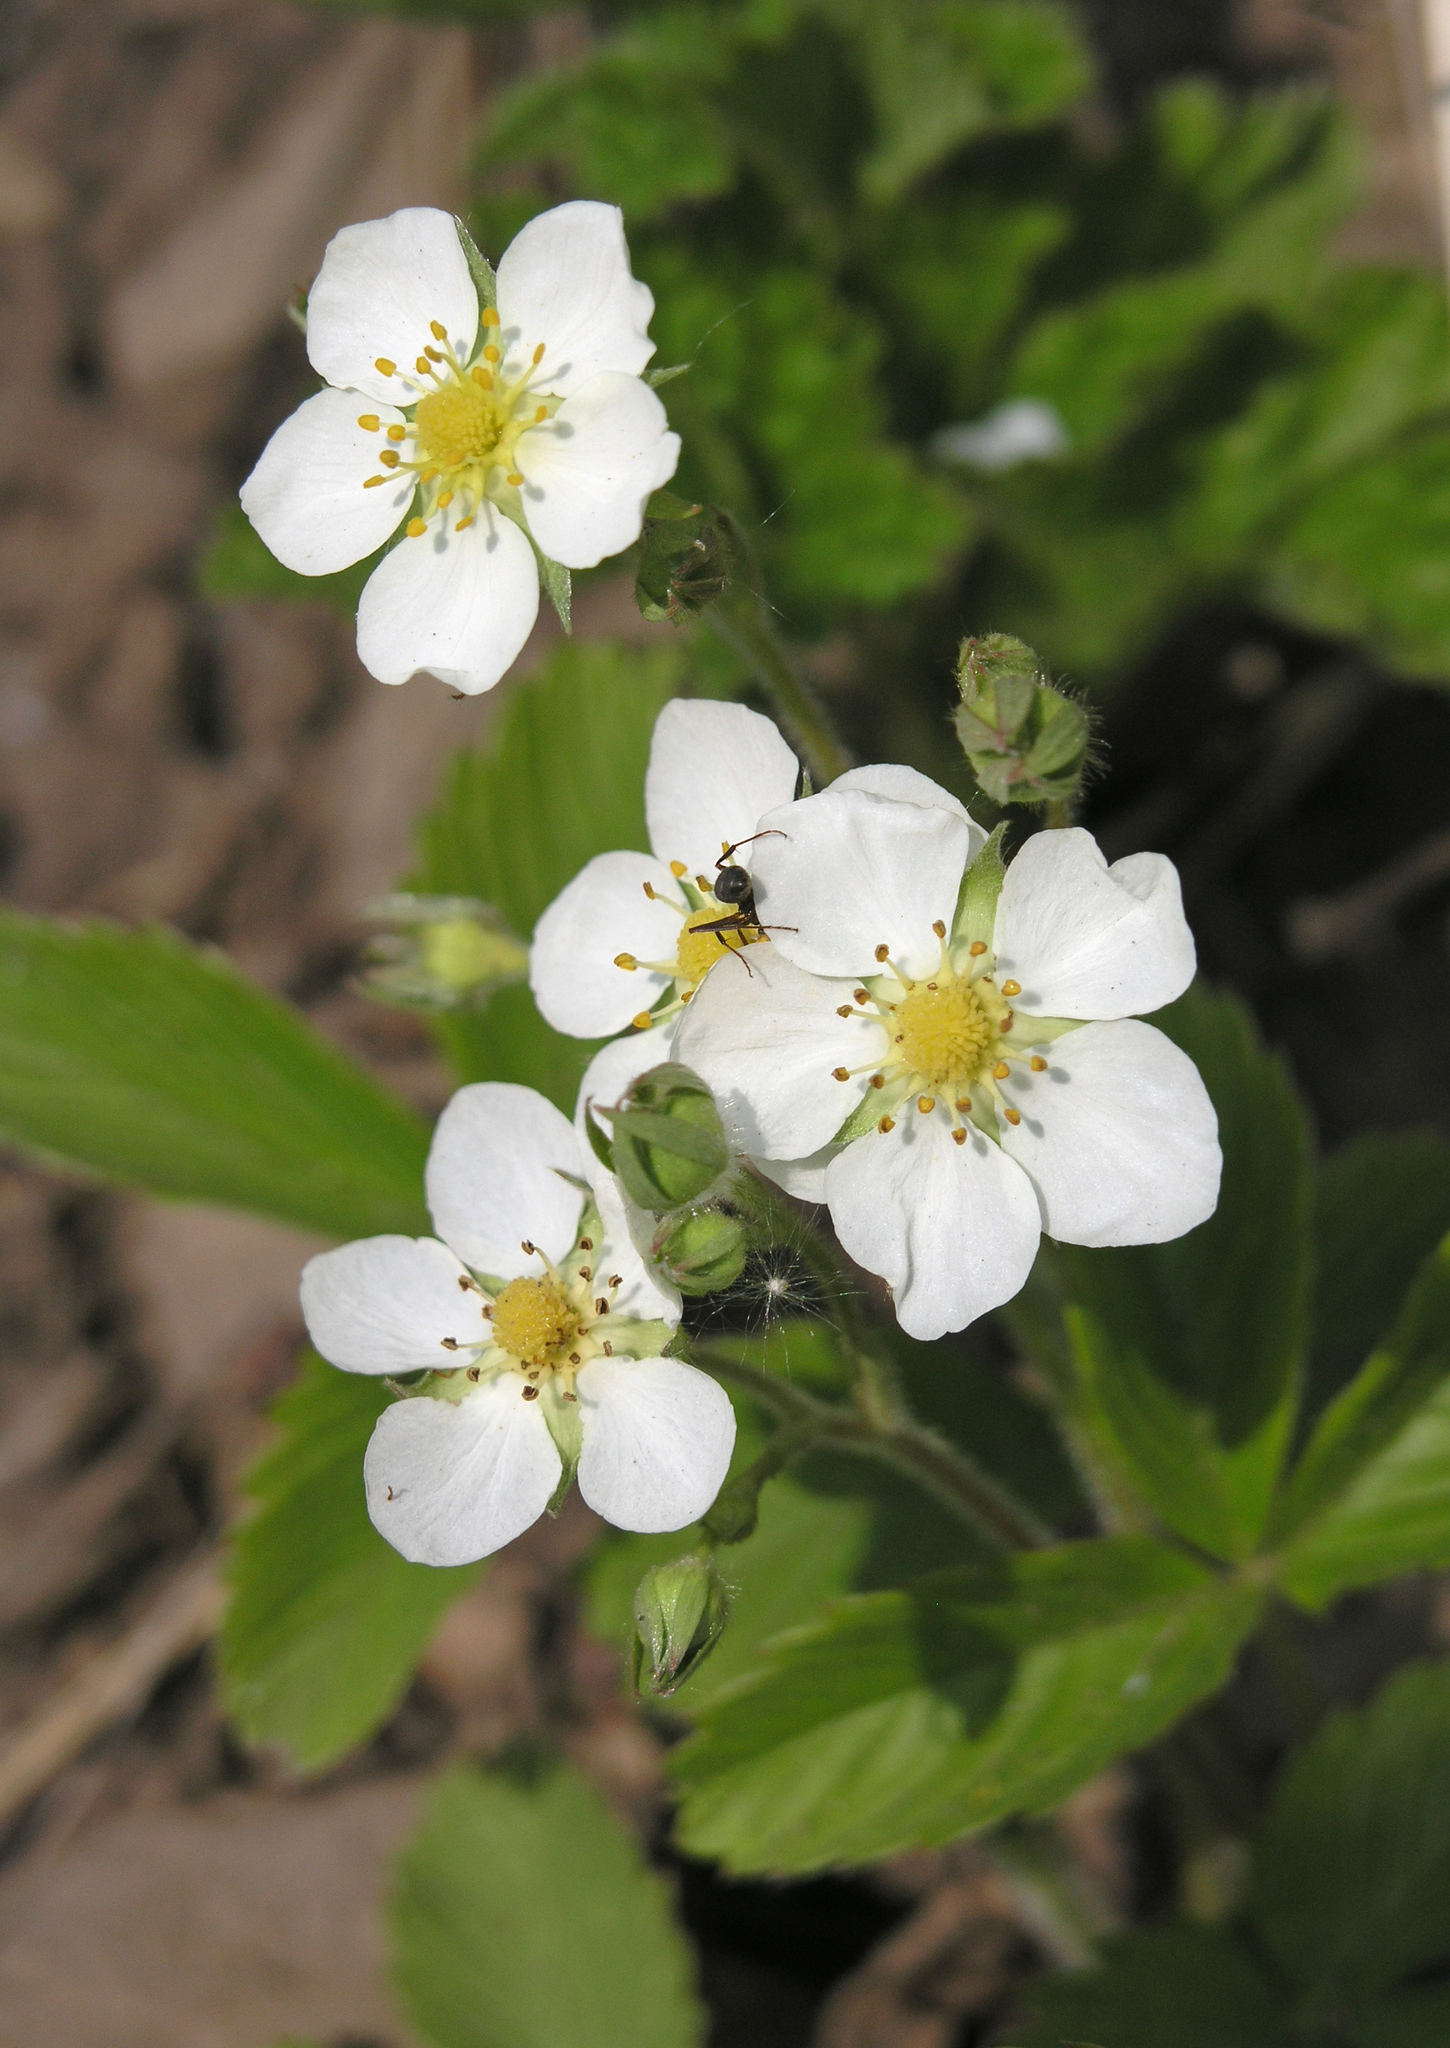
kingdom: Plantae
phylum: Tracheophyta
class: Magnoliopsida
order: Rosales
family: Rosaceae
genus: Fragaria
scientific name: Fragaria viridis
